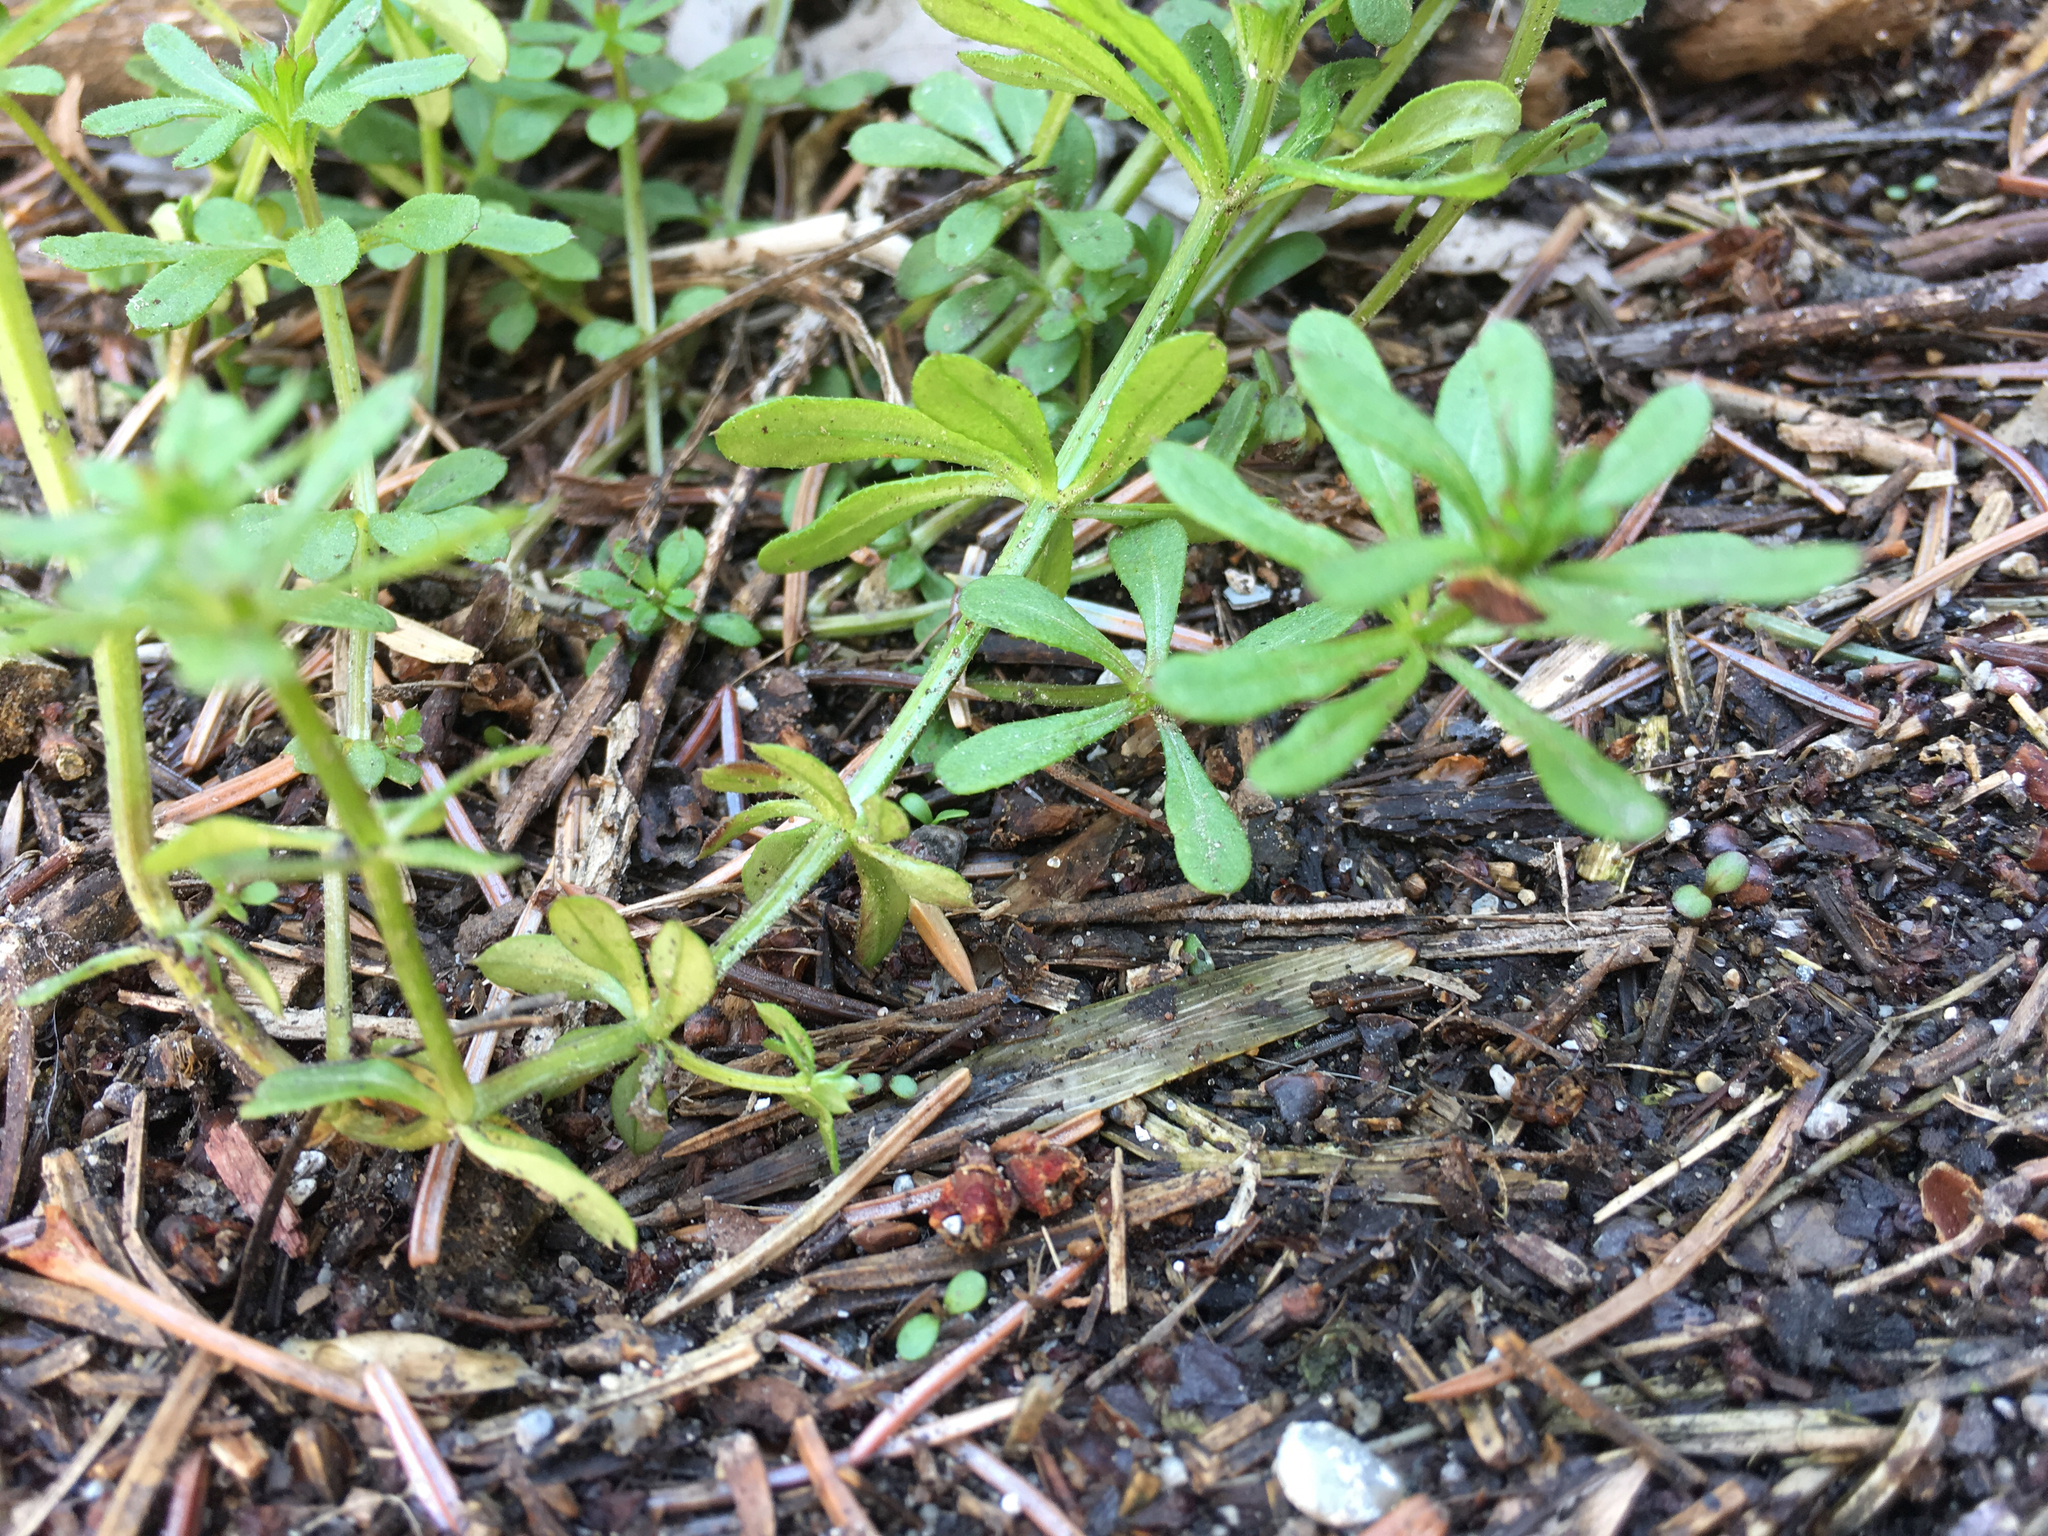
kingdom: Plantae
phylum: Tracheophyta
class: Magnoliopsida
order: Gentianales
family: Rubiaceae
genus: Galium
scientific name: Galium aparine
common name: Cleavers
